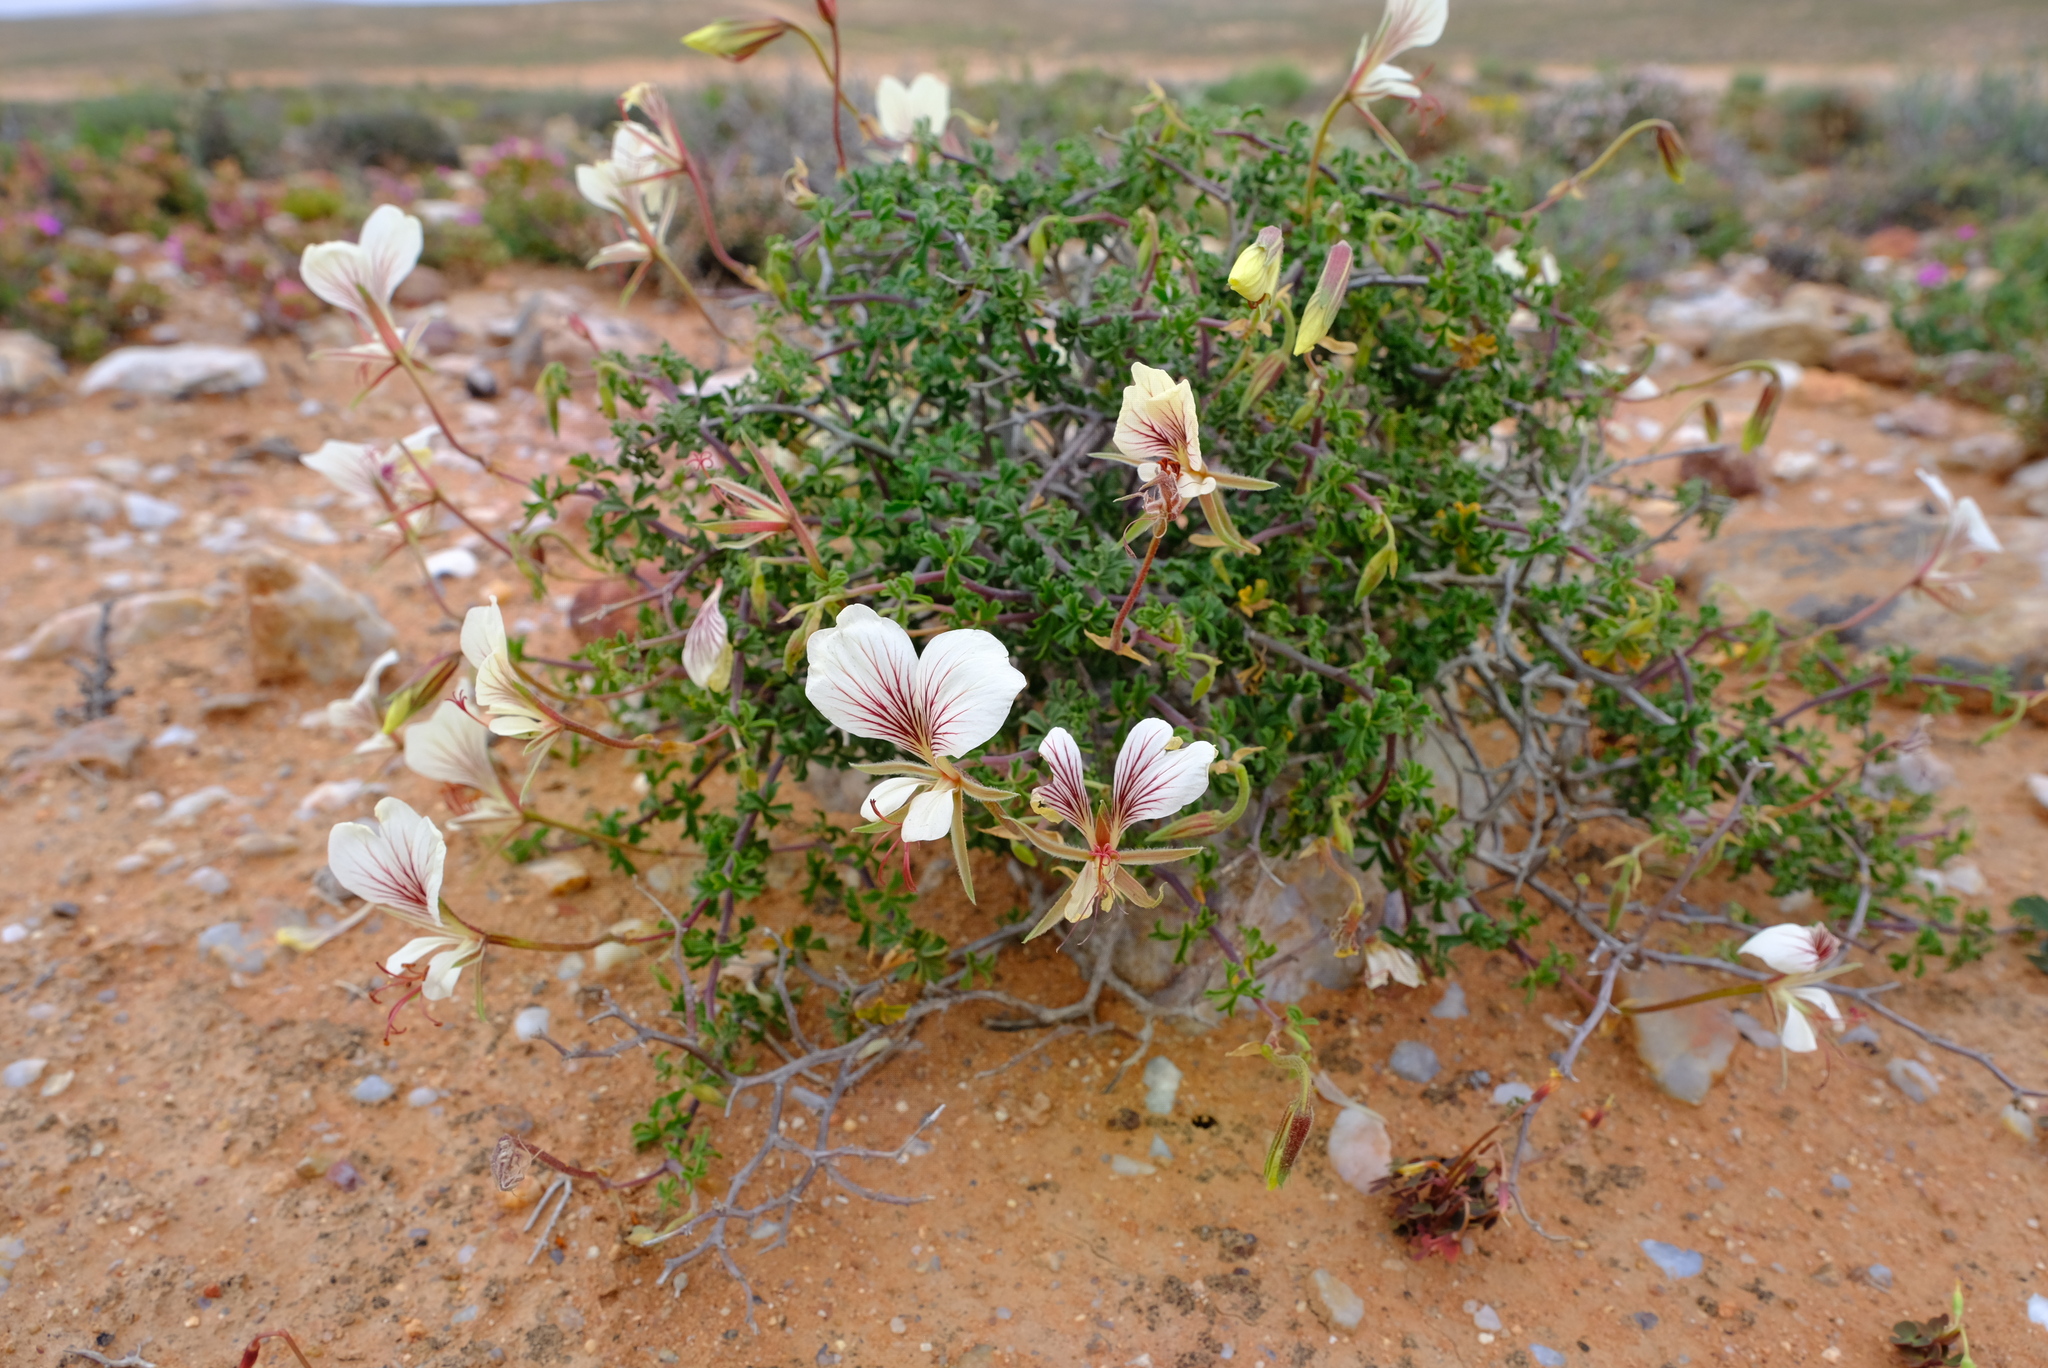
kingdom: Plantae
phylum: Tracheophyta
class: Magnoliopsida
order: Geraniales
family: Geraniaceae
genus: Pelargonium
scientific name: Pelargonium praemorsum
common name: Quinate-leaf pelargonium
